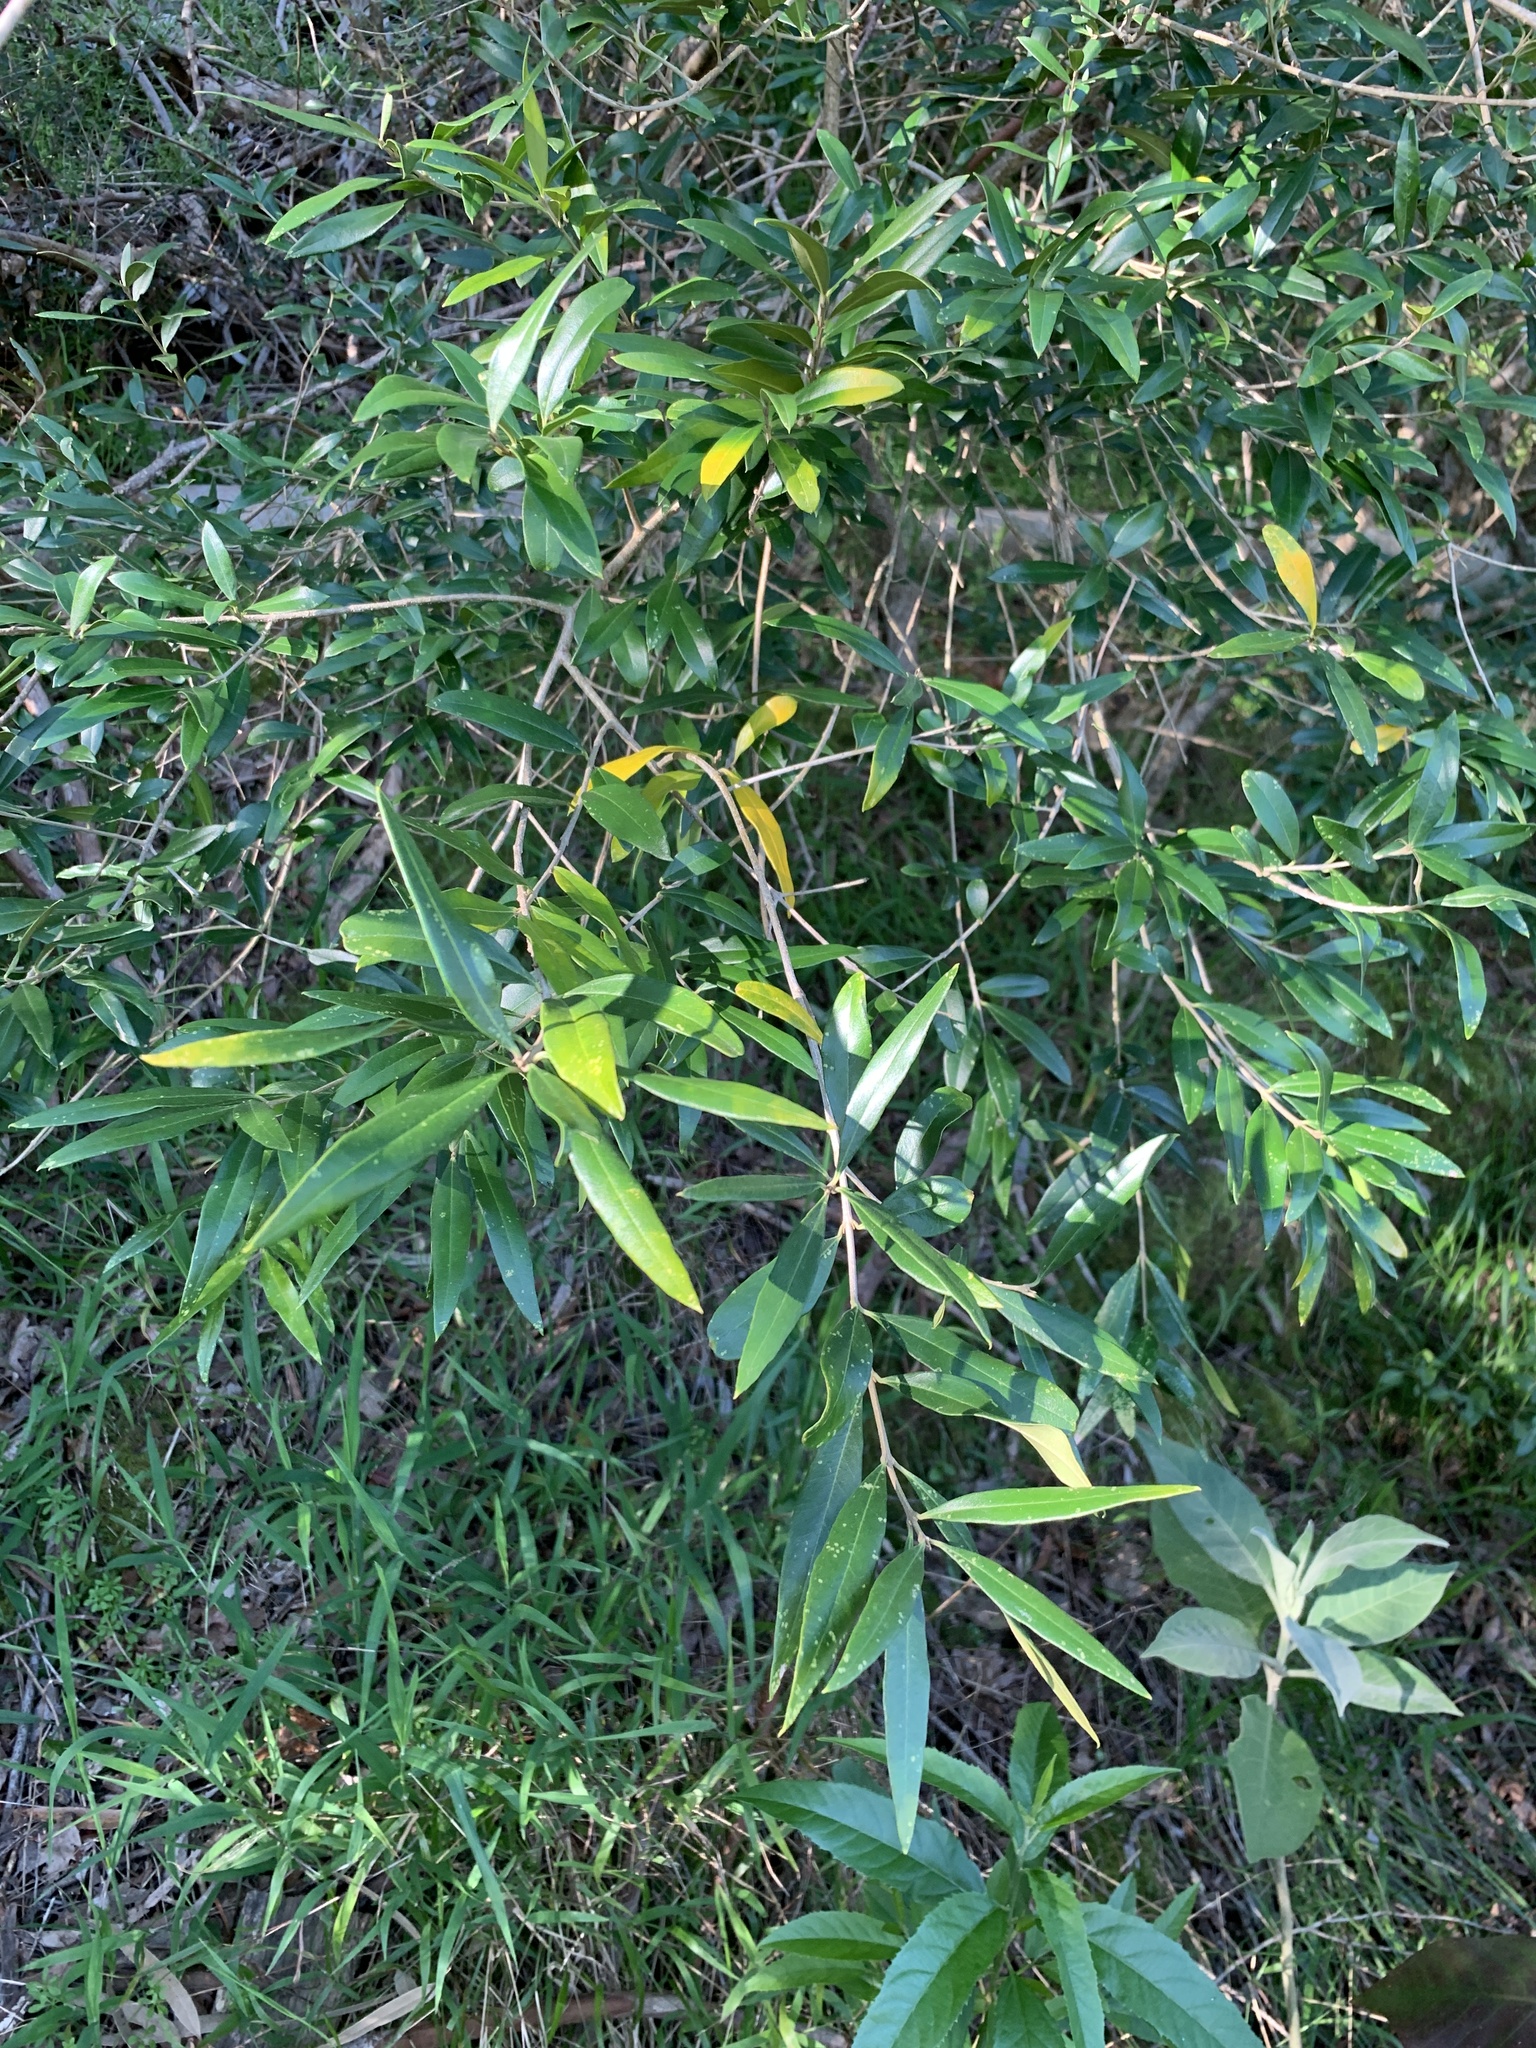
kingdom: Plantae
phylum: Tracheophyta
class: Magnoliopsida
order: Lamiales
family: Oleaceae
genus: Olea
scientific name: Olea europaea
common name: Olive
